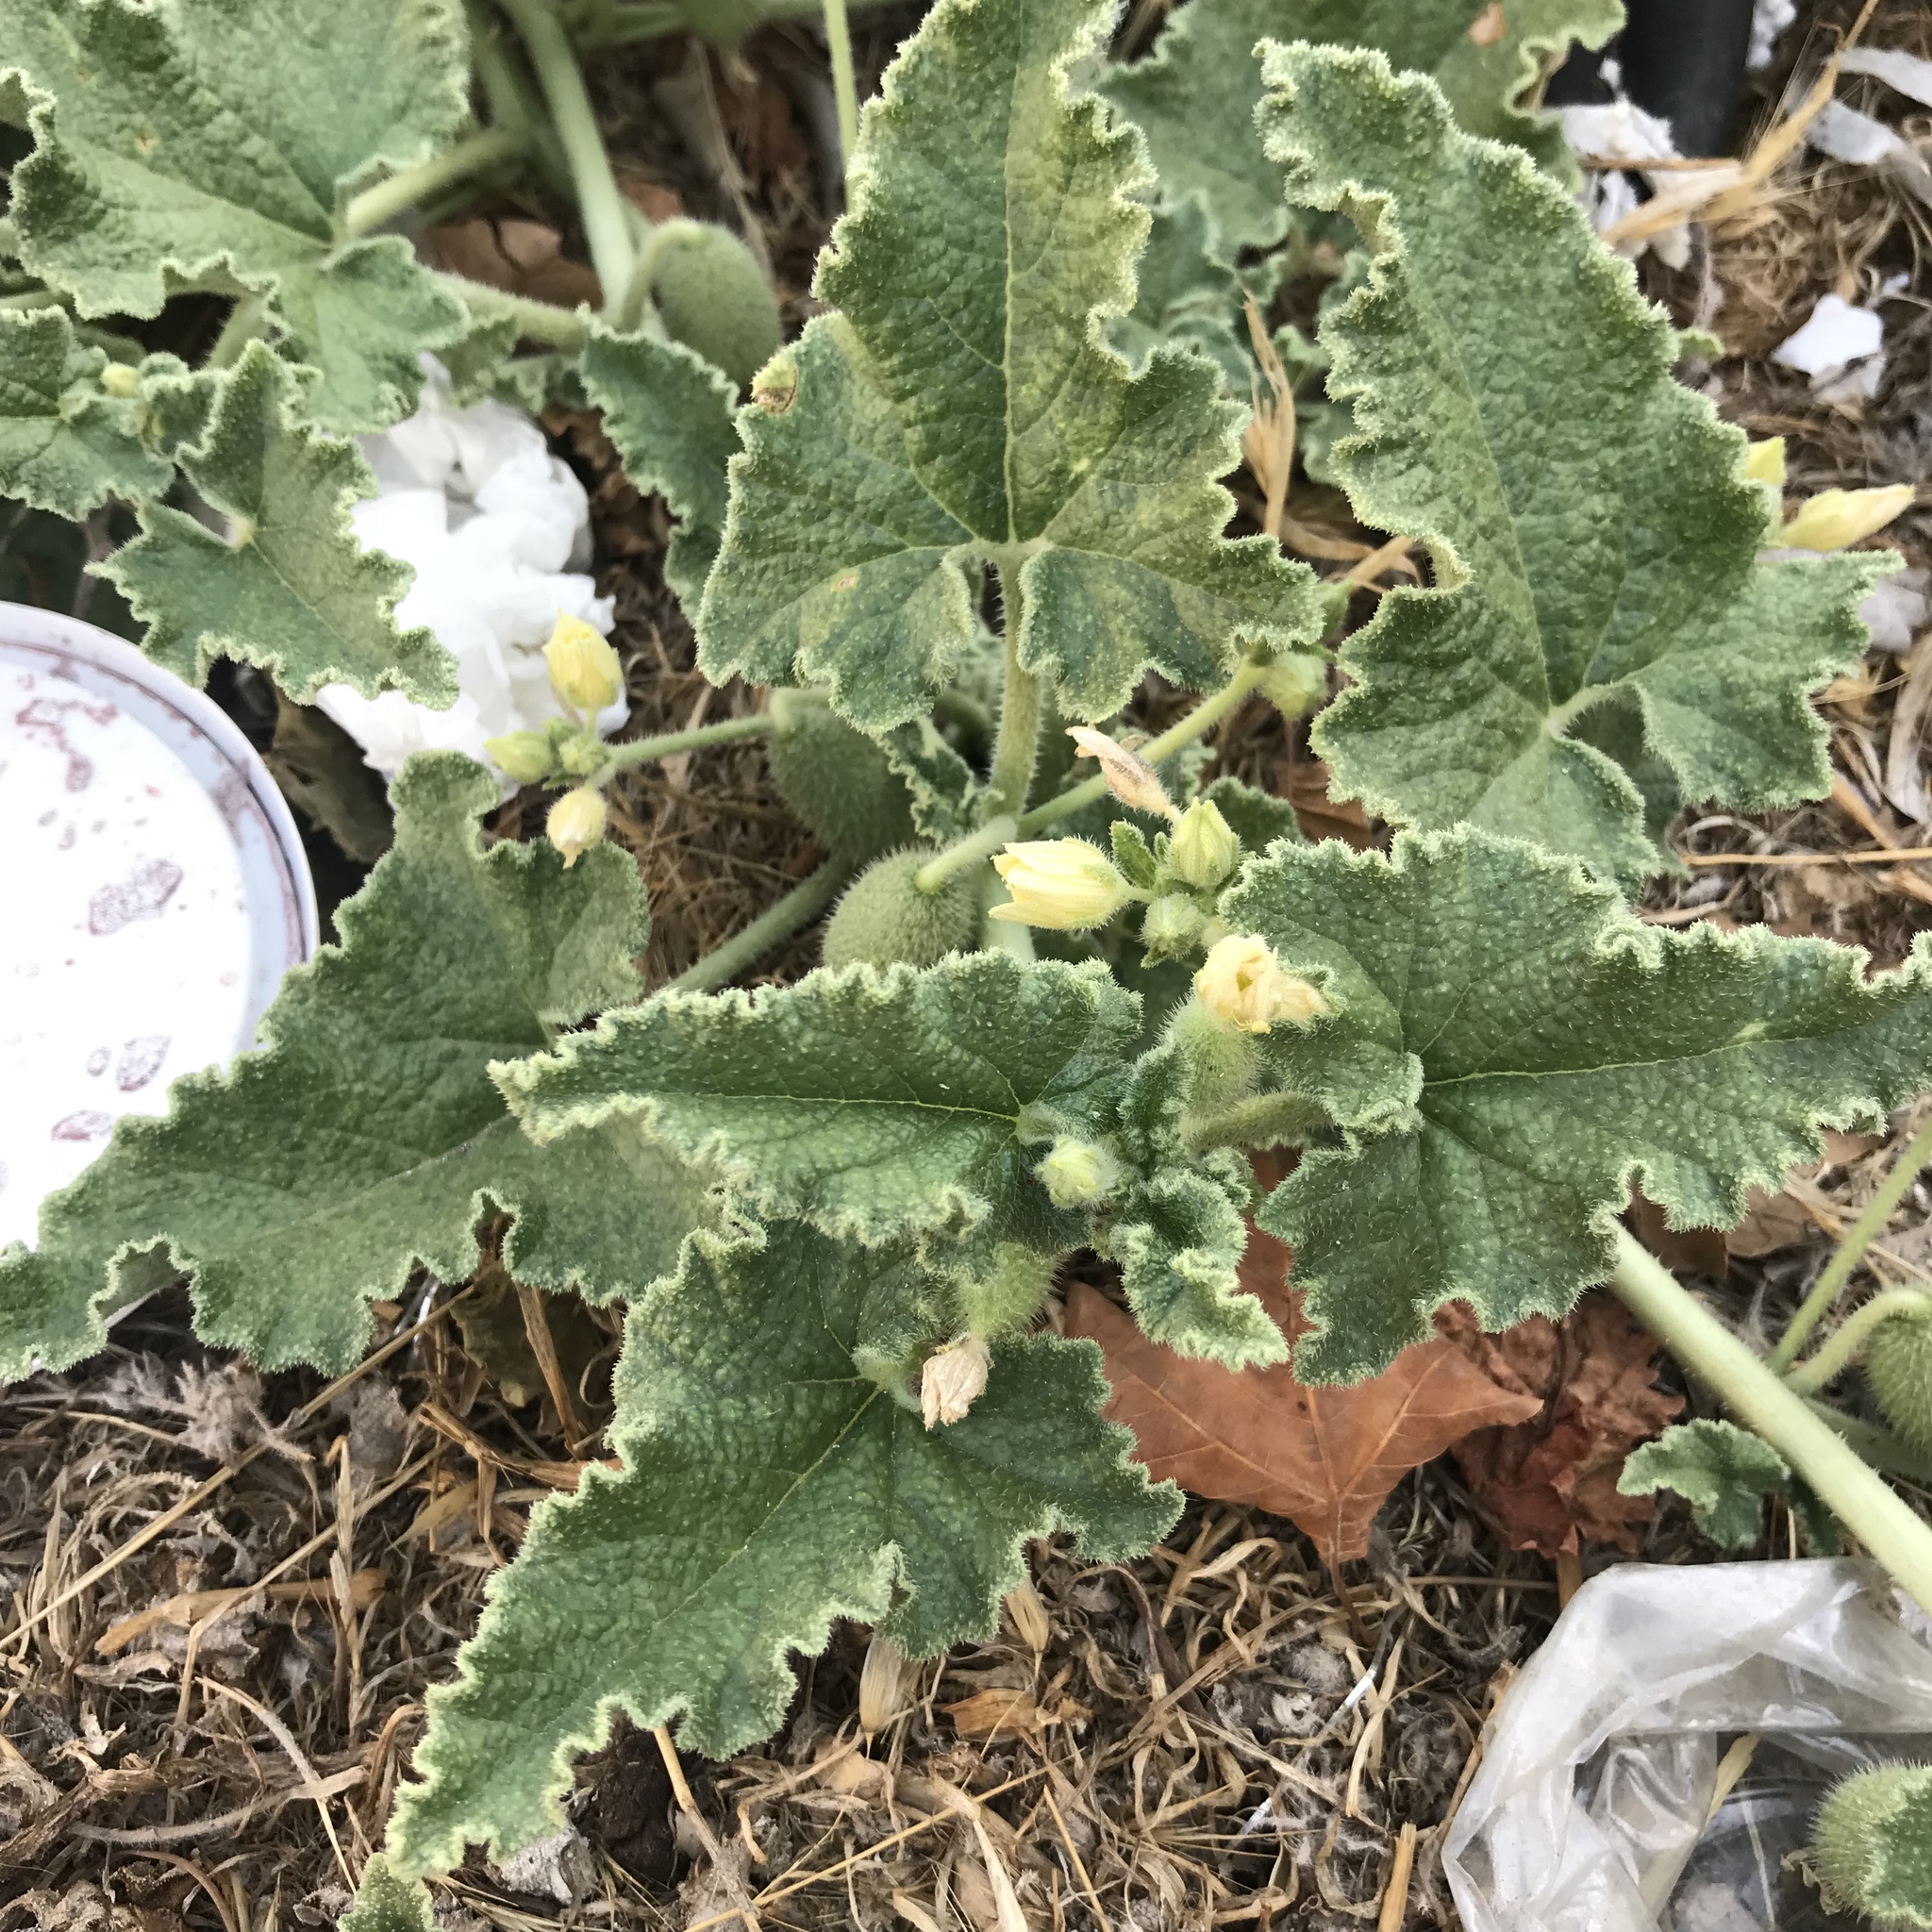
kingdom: Plantae
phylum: Tracheophyta
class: Magnoliopsida
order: Cucurbitales
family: Cucurbitaceae
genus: Ecballium
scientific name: Ecballium elaterium
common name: Squirting cucumber
